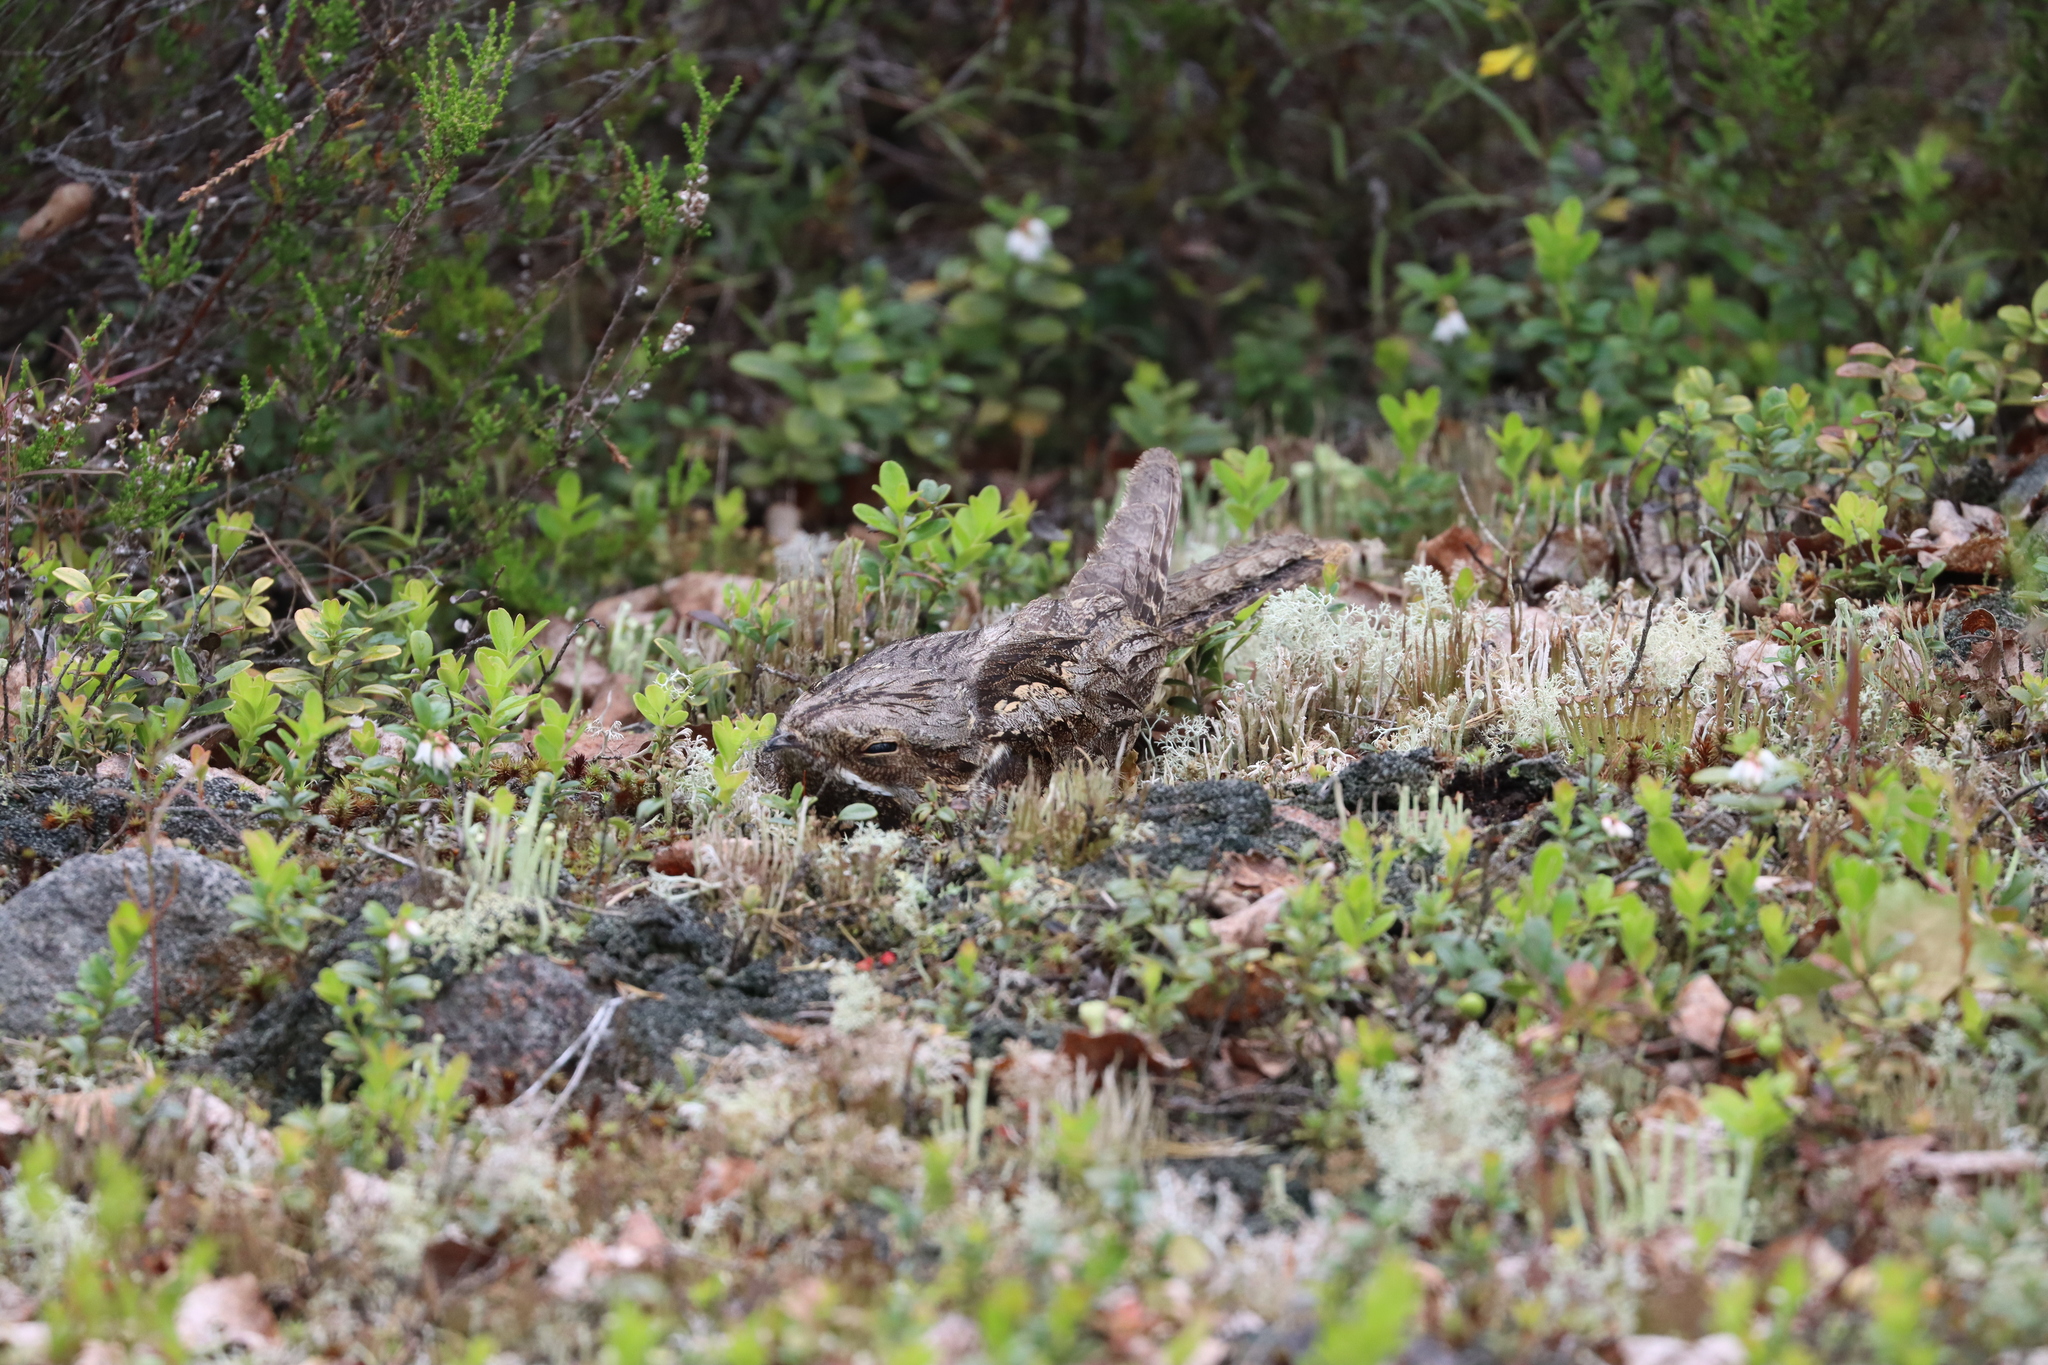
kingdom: Animalia
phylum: Chordata
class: Aves
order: Caprimulgiformes
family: Caprimulgidae
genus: Caprimulgus
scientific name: Caprimulgus europaeus
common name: European nightjar
